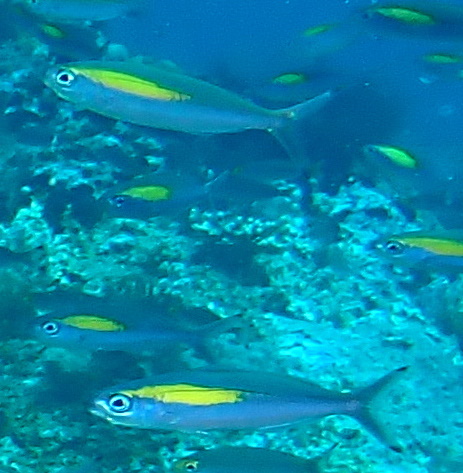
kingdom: Animalia
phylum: Chordata
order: Perciformes
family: Caesionidae
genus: Pterocaesio
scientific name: Pterocaesio randalli
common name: Randall's fusilier
